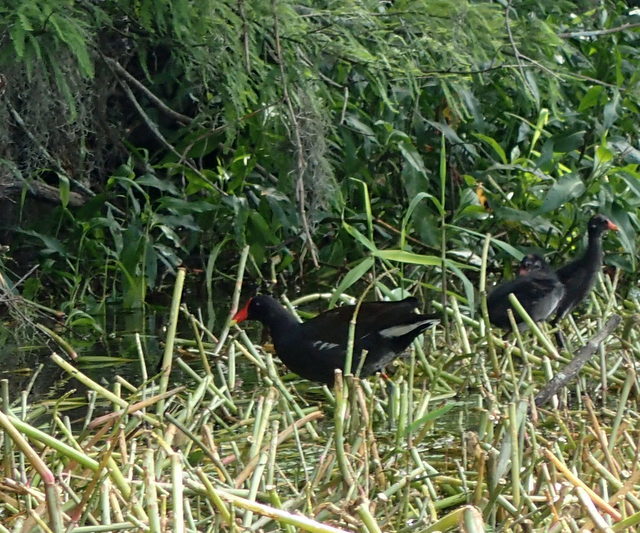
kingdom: Animalia
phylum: Chordata
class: Aves
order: Gruiformes
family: Rallidae
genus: Gallinula
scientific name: Gallinula chloropus
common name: Common moorhen
